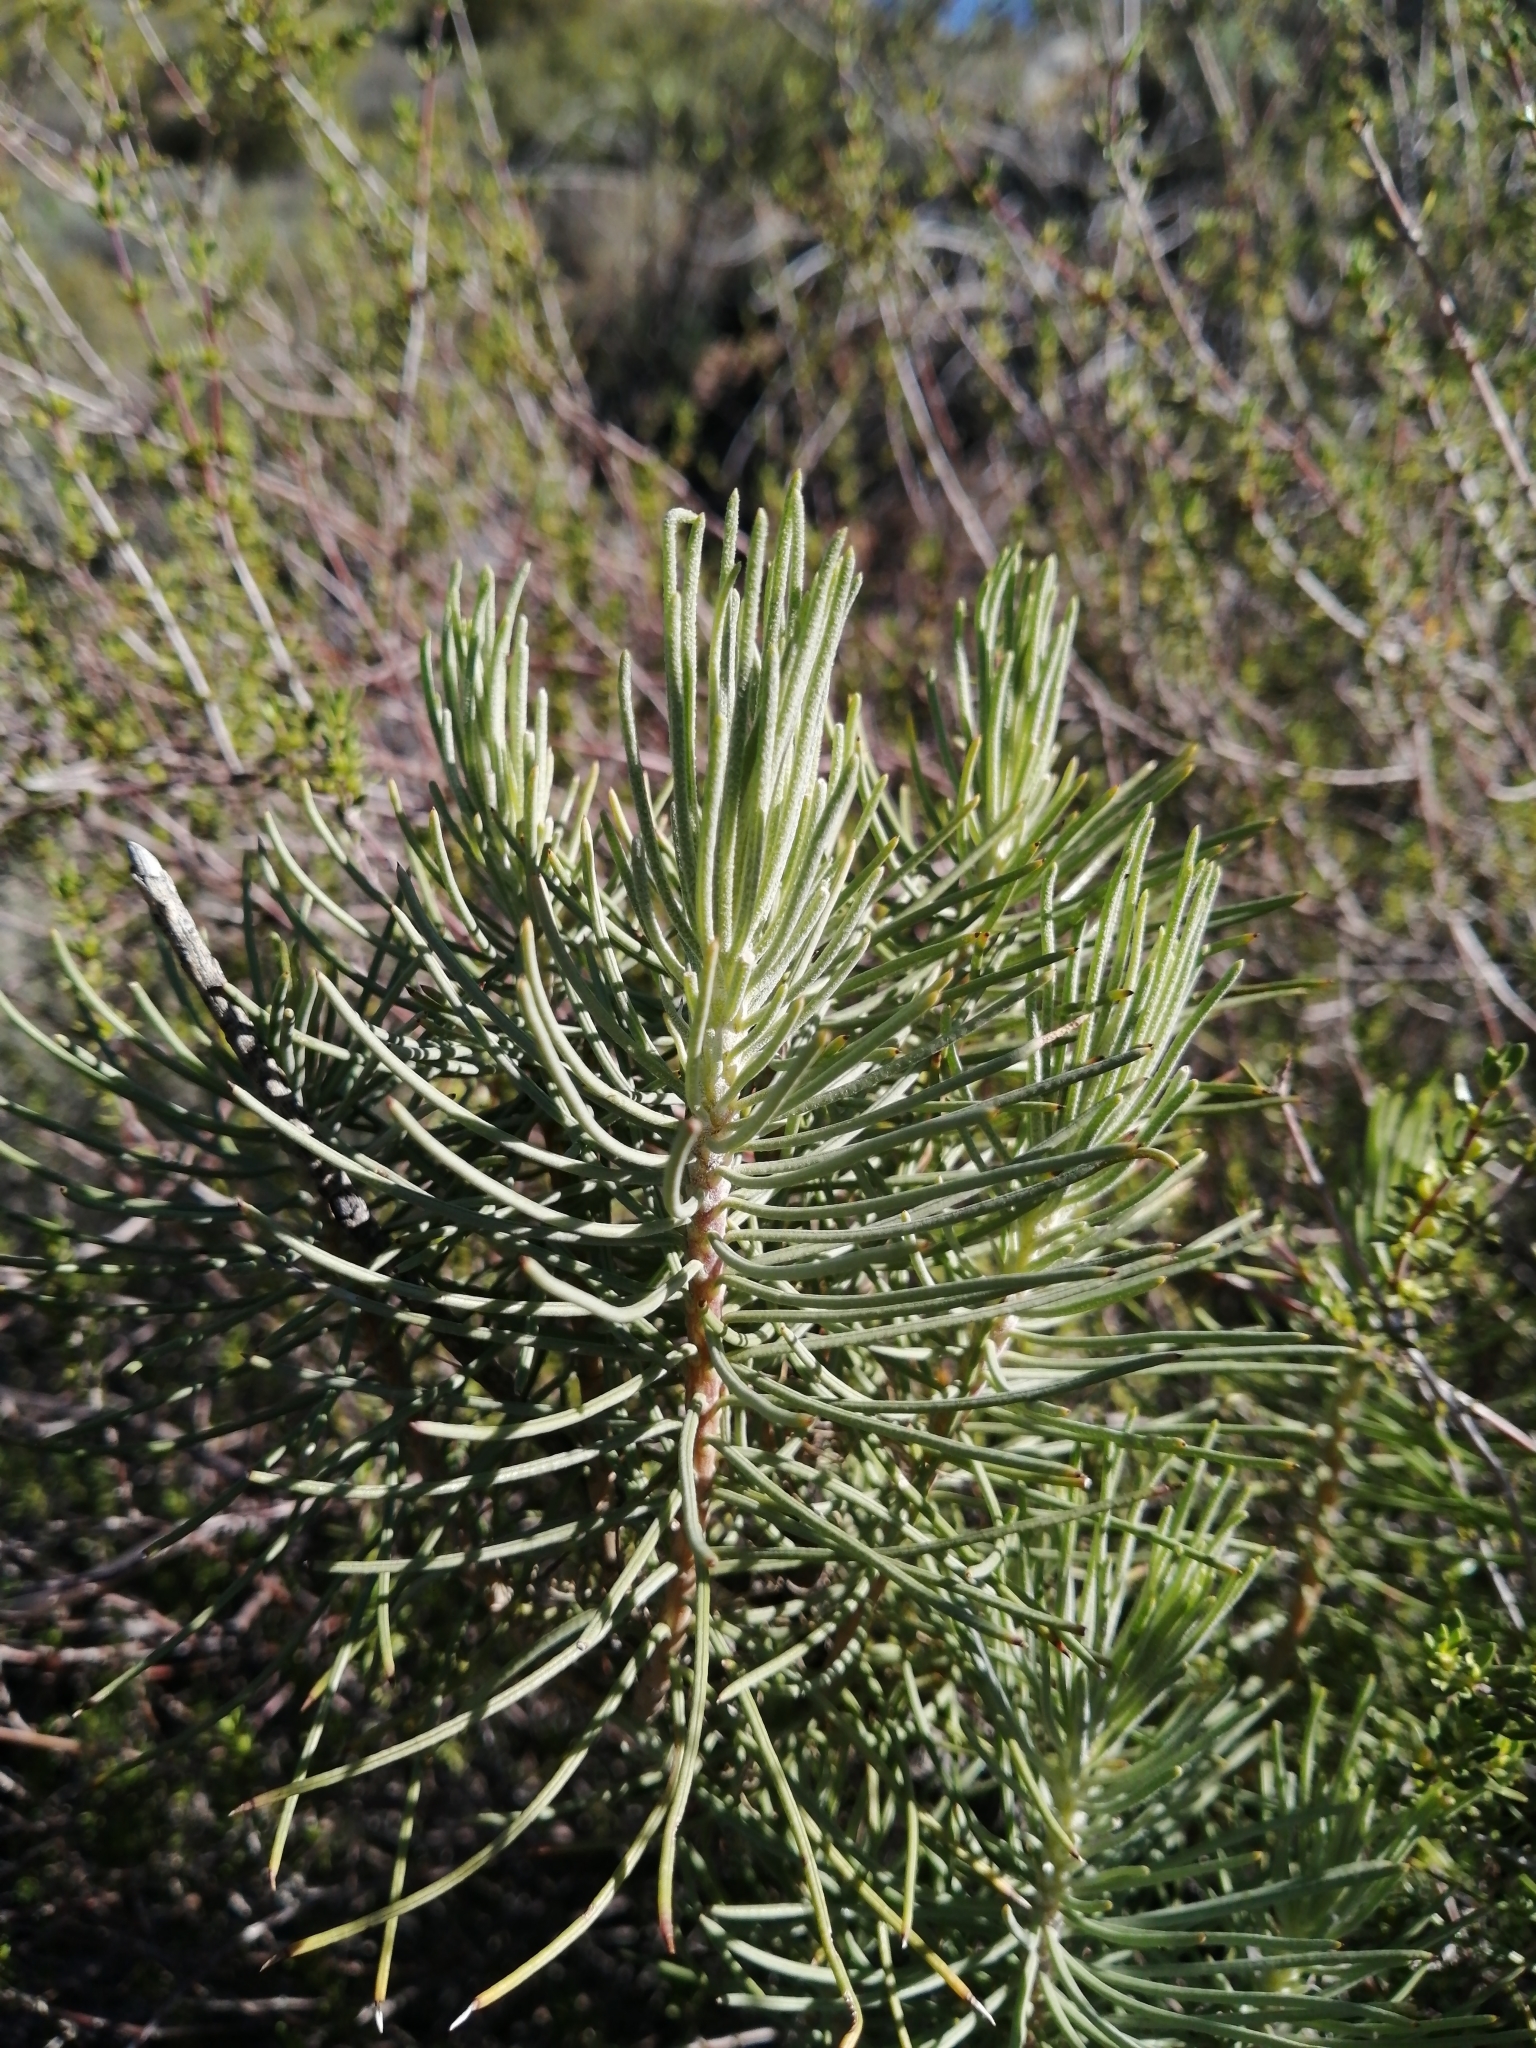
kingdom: Plantae
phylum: Tracheophyta
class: Magnoliopsida
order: Asterales
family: Asteraceae
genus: Euryops
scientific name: Euryops tenuissimus
